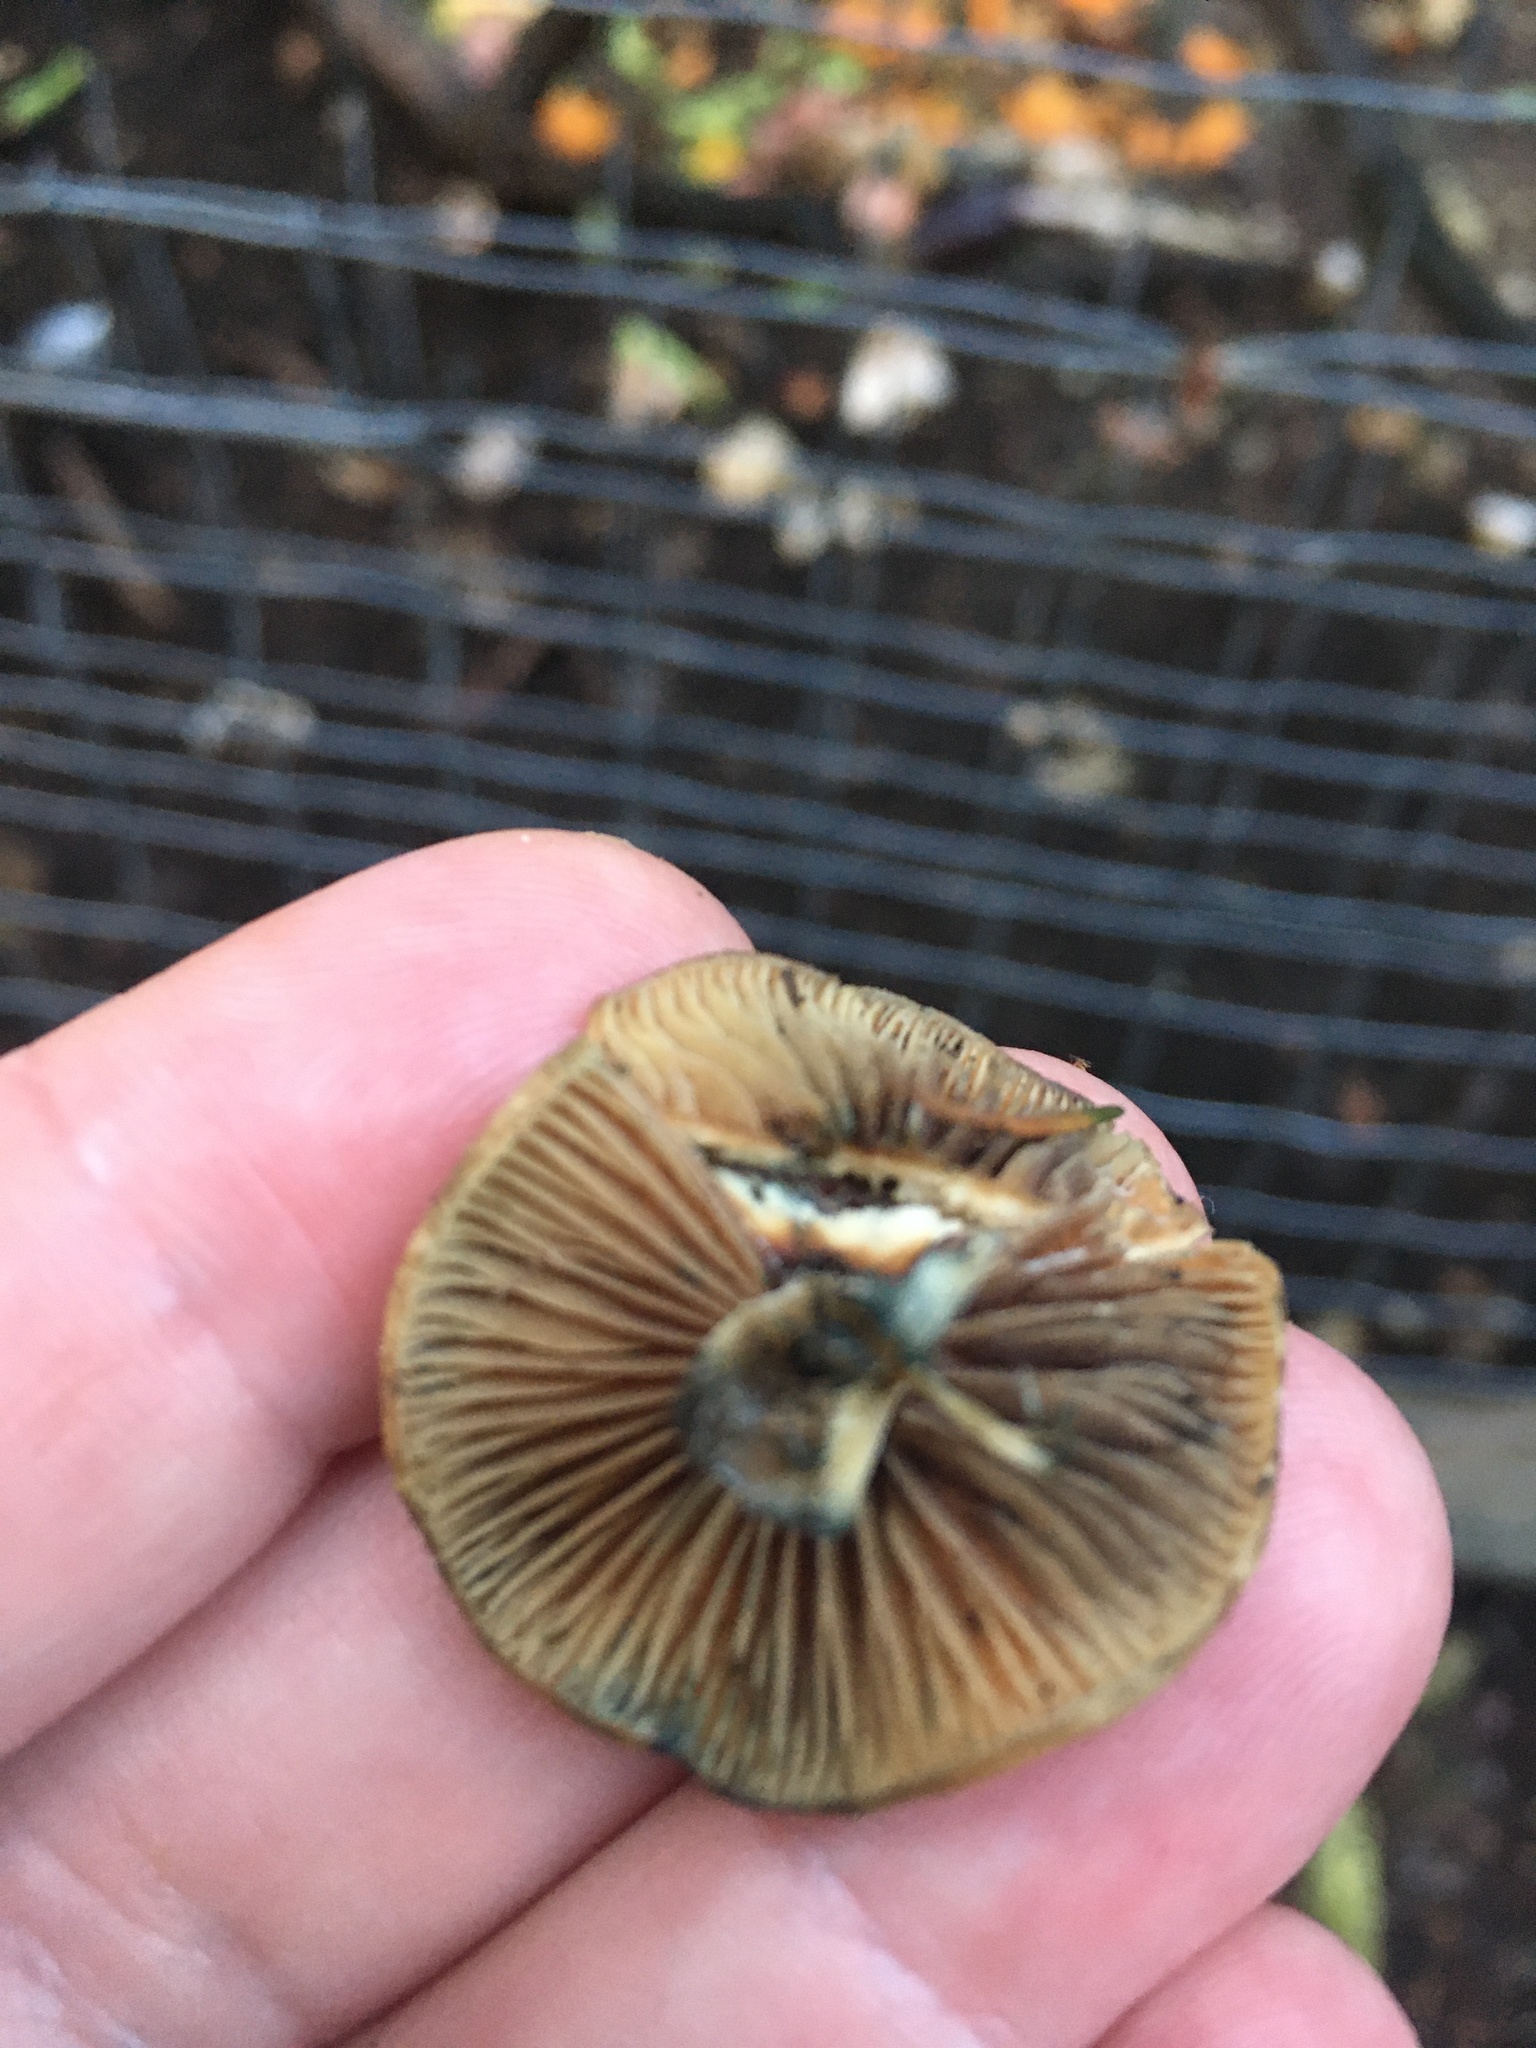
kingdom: Fungi
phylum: Basidiomycota
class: Agaricomycetes
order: Agaricales
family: Hymenogastraceae
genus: Psilocybe
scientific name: Psilocybe cyanescens
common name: Blueleg brownie
